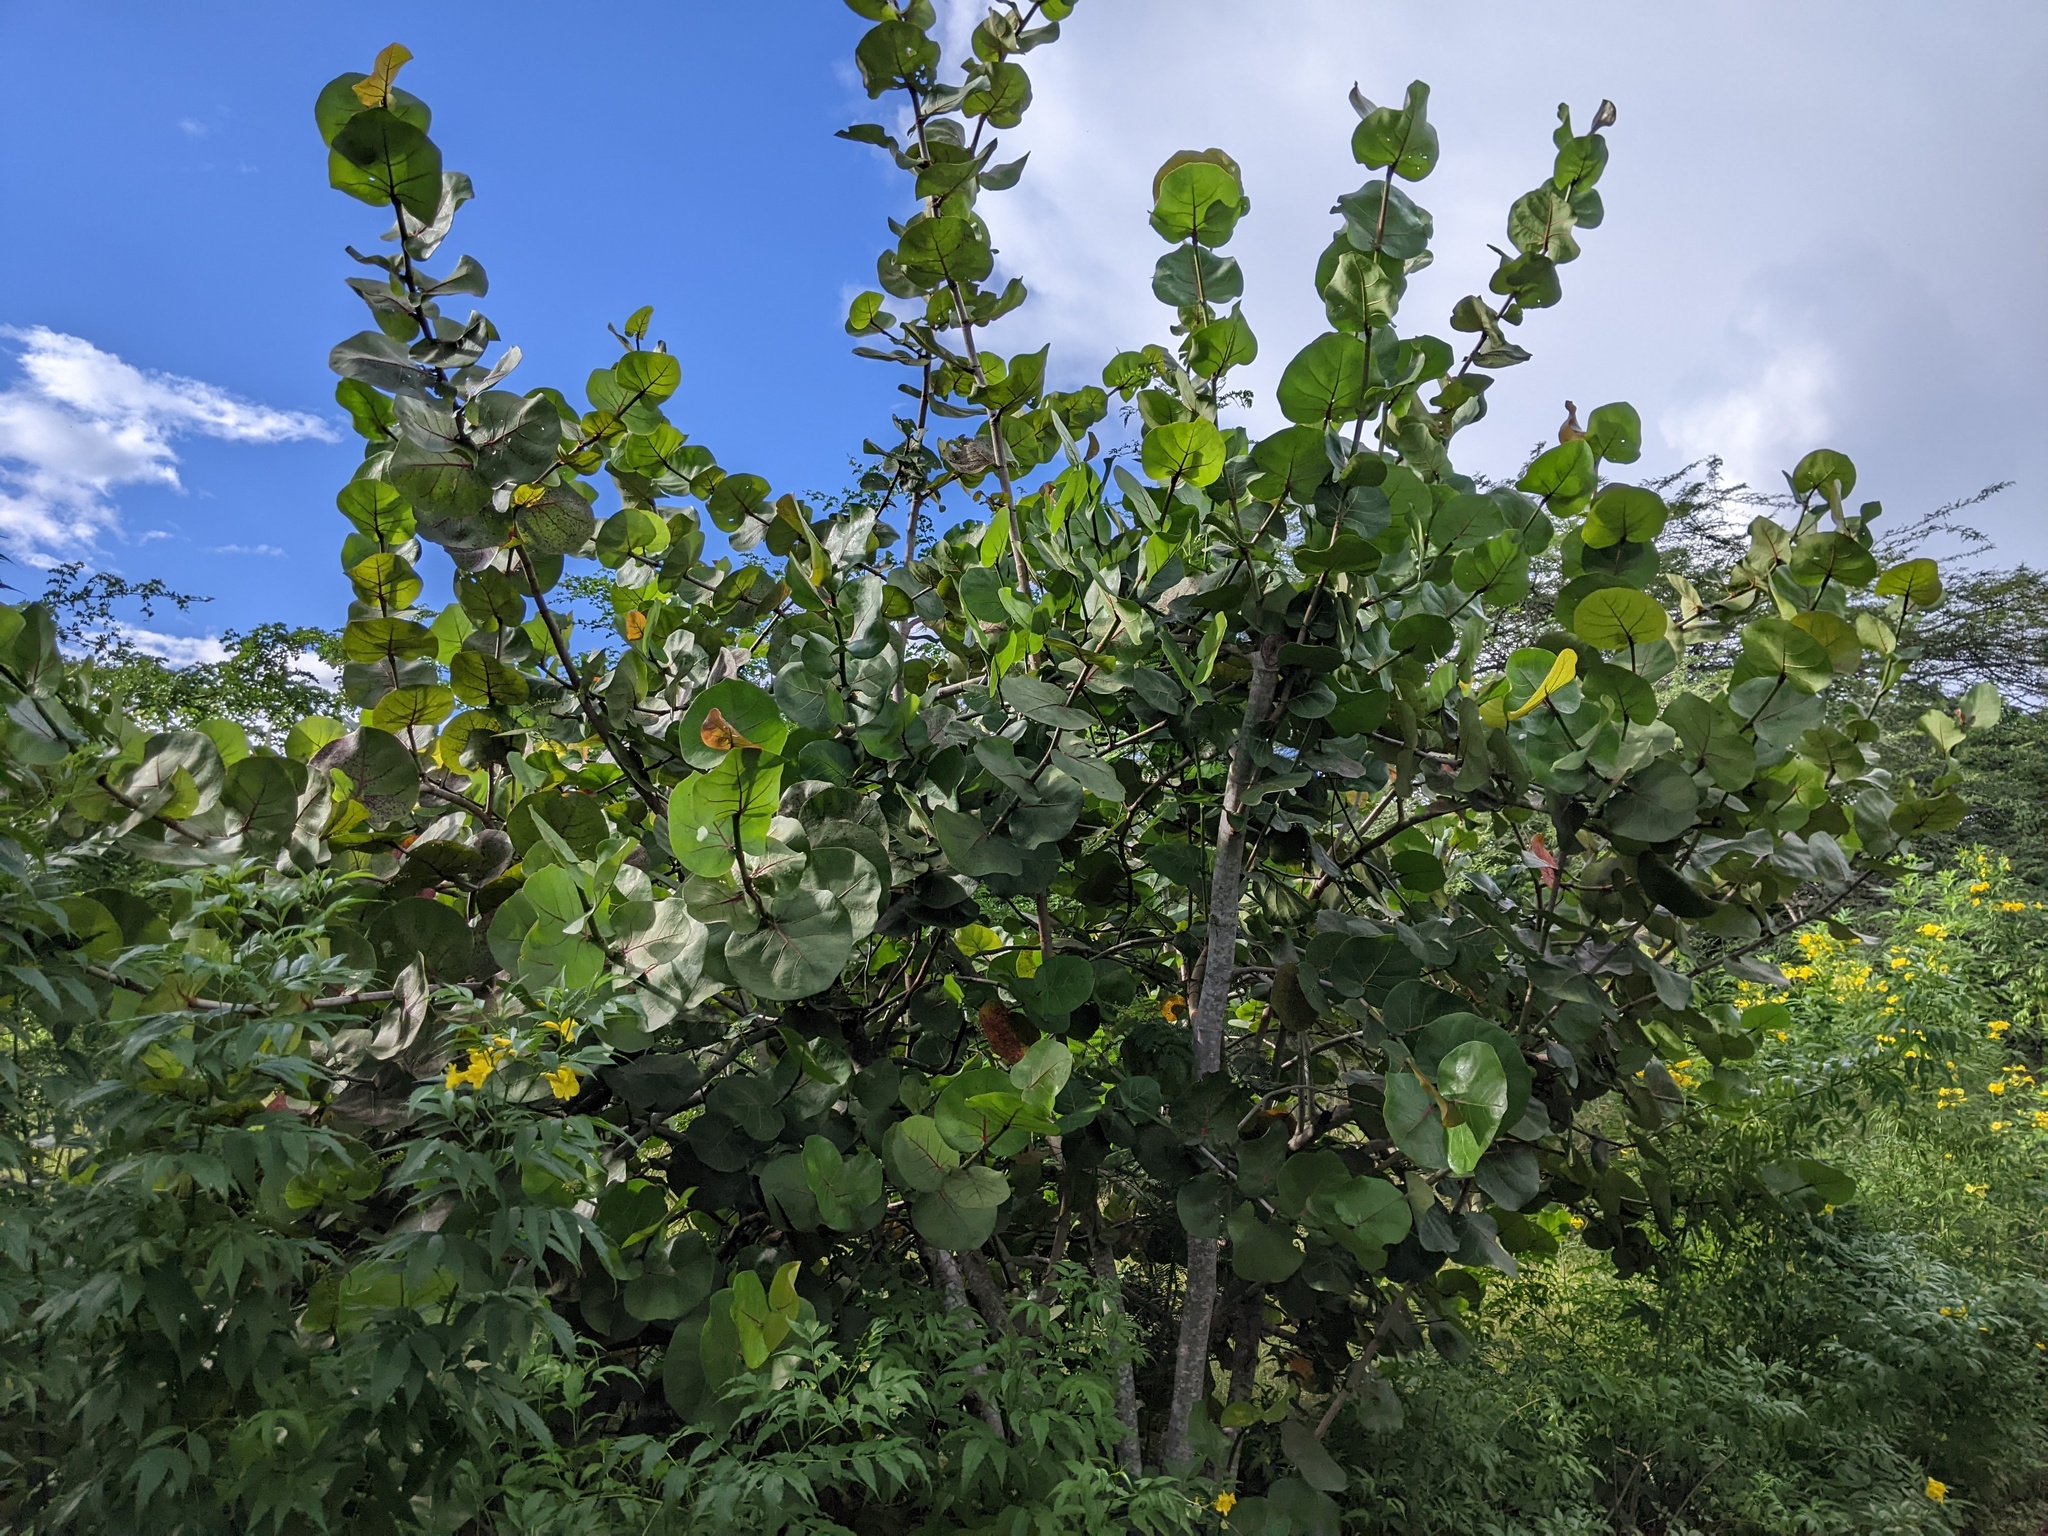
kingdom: Plantae
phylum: Tracheophyta
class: Magnoliopsida
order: Caryophyllales
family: Polygonaceae
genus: Coccoloba
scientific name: Coccoloba uvifera
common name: Seagrape
